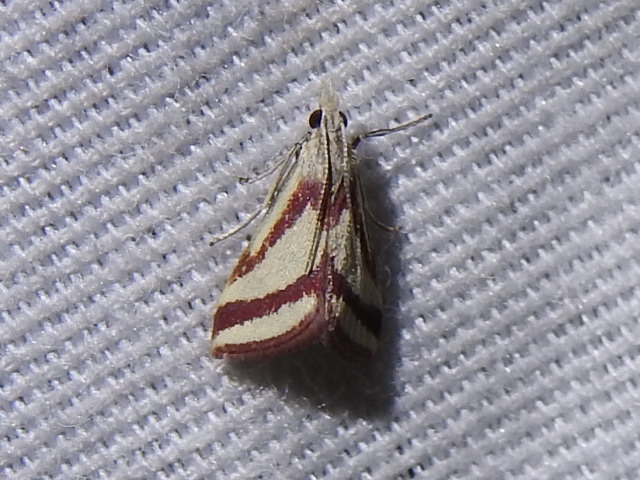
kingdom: Animalia
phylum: Arthropoda
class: Insecta
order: Lepidoptera
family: Crambidae
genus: Microtheoris
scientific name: Microtheoris vibicalis
